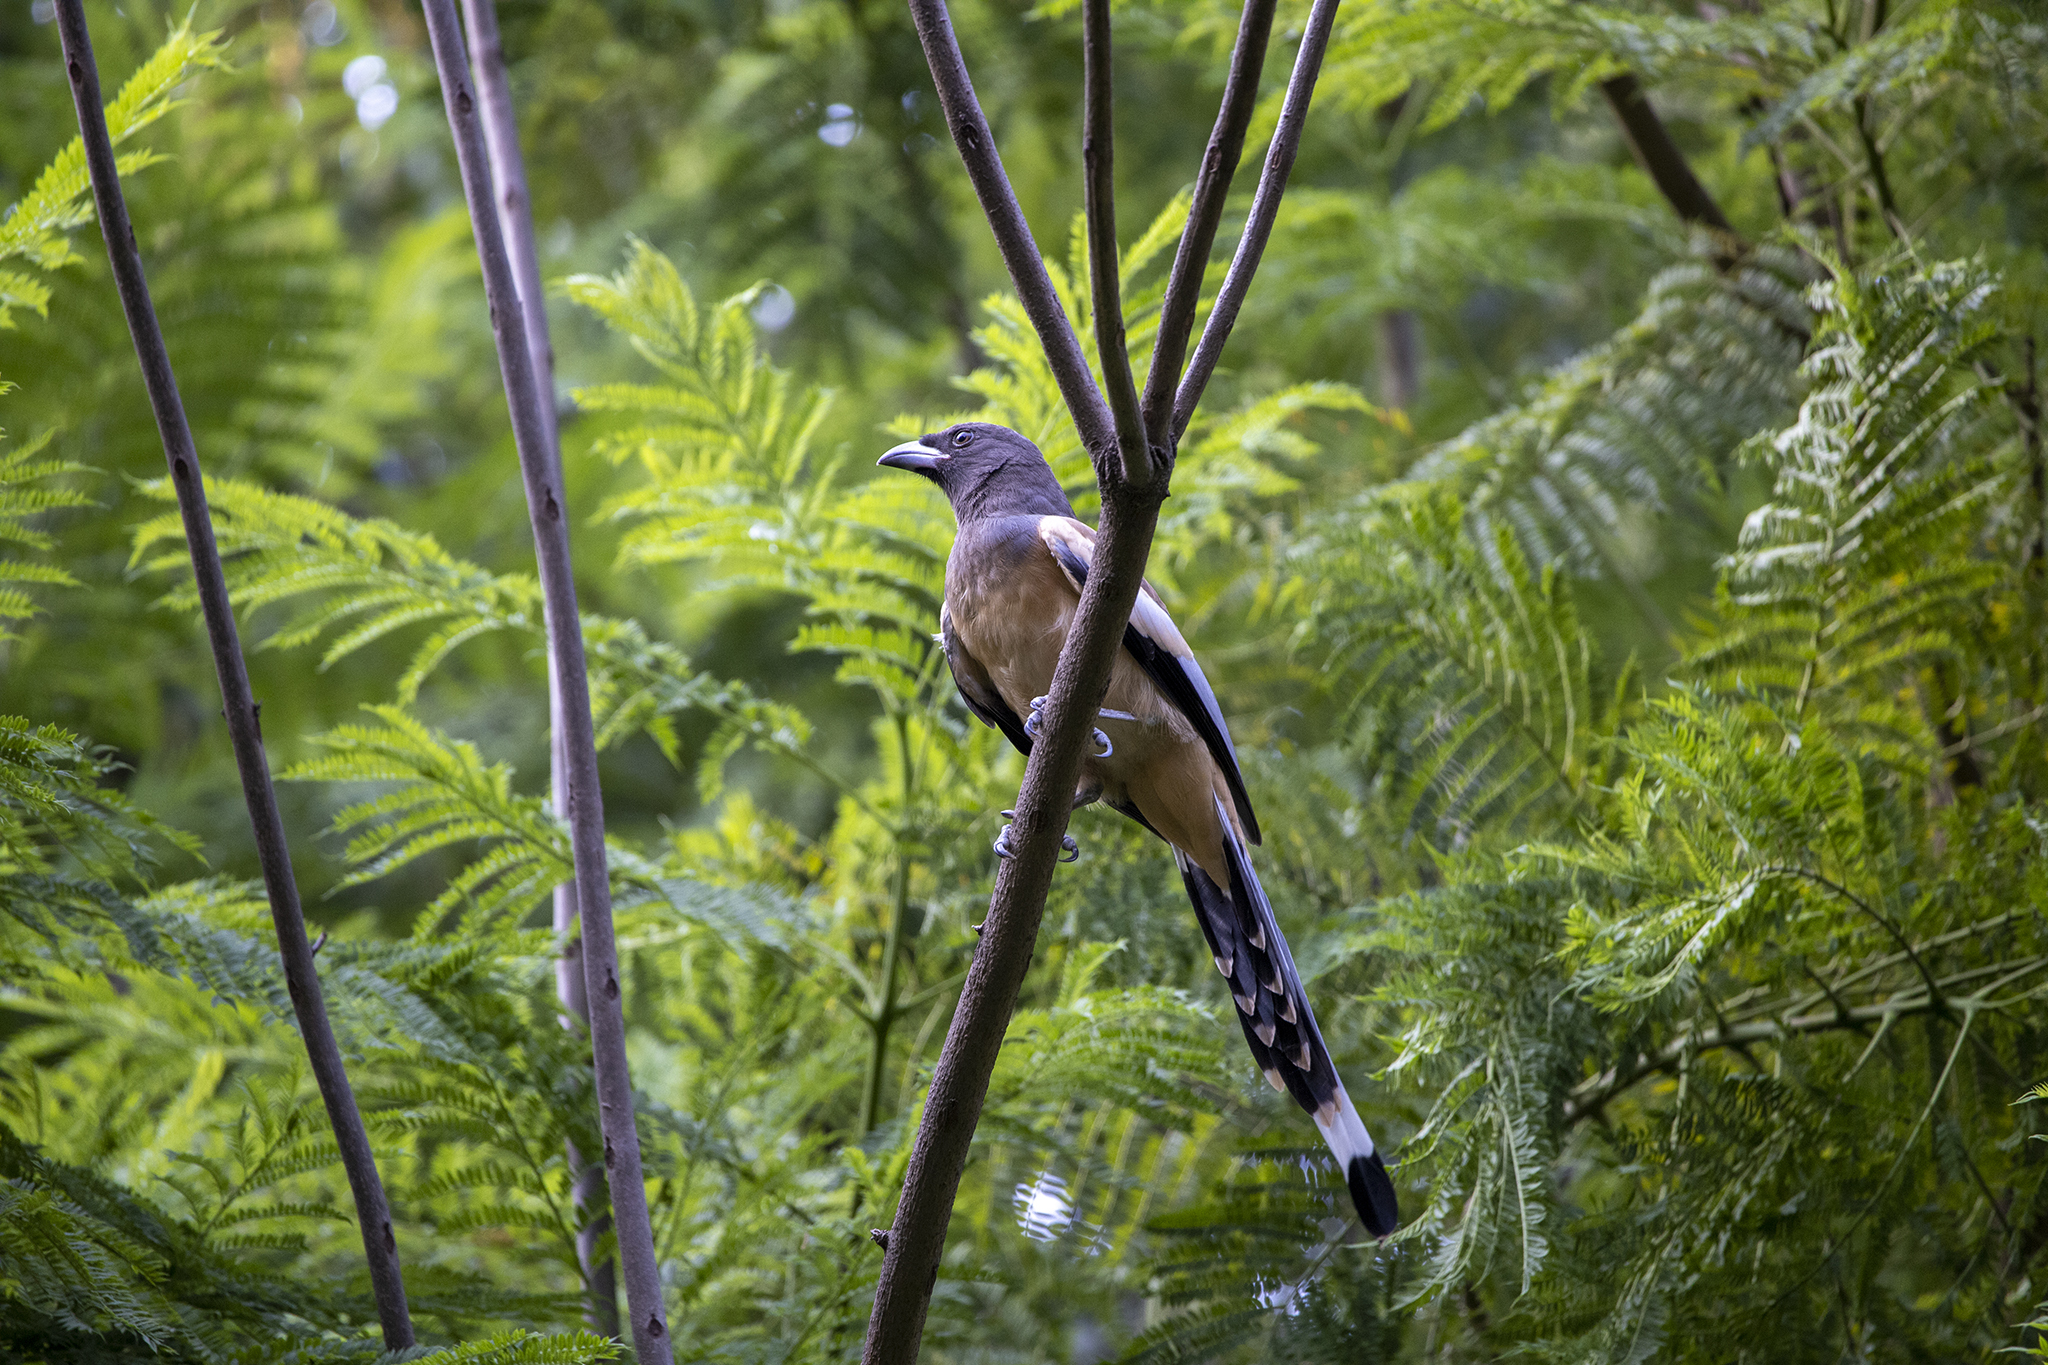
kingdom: Animalia
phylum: Chordata
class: Aves
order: Passeriformes
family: Corvidae
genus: Dendrocitta
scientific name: Dendrocitta vagabunda
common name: Rufous treepie
